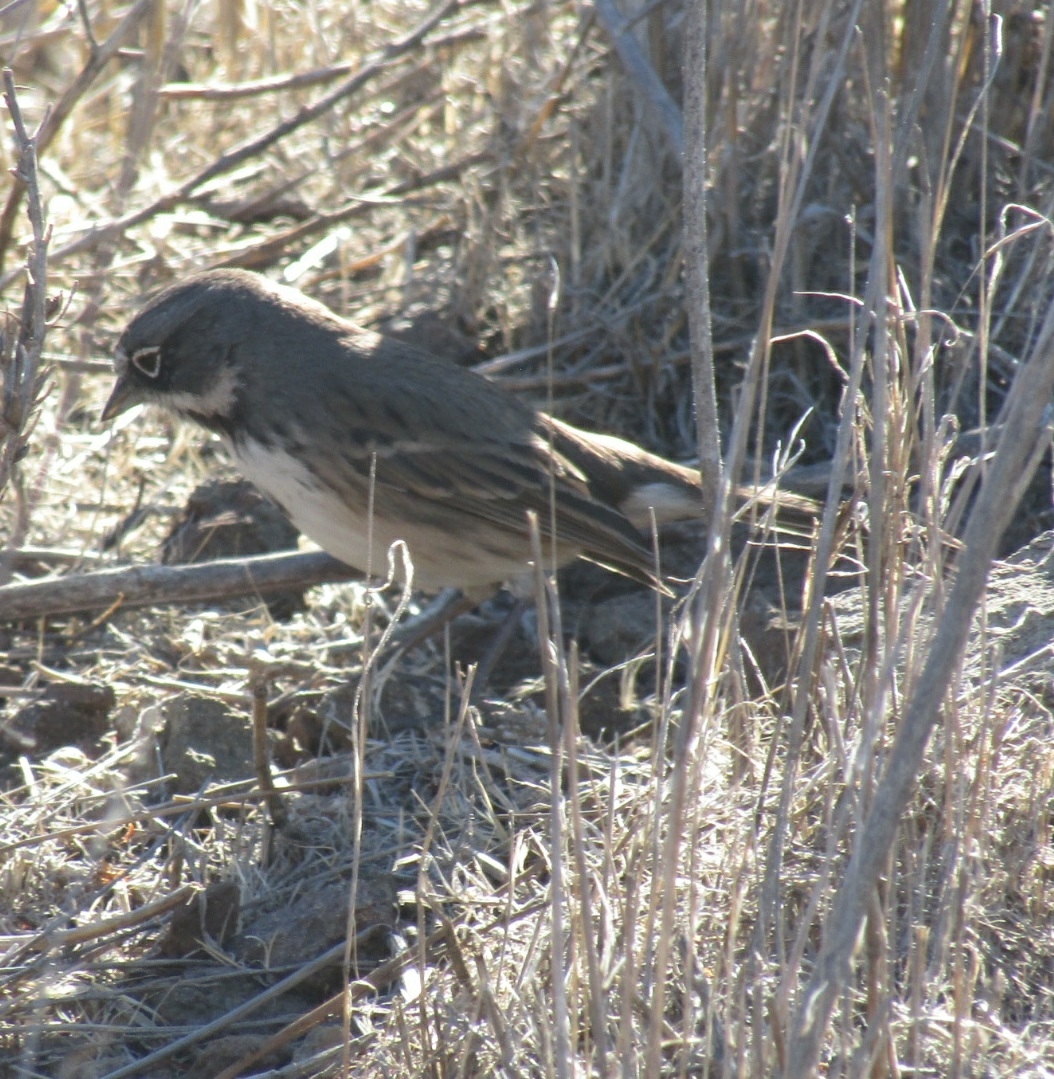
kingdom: Animalia
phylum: Chordata
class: Aves
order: Passeriformes
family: Passerellidae
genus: Artemisiospiza
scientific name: Artemisiospiza belli
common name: Bell's sparrow
